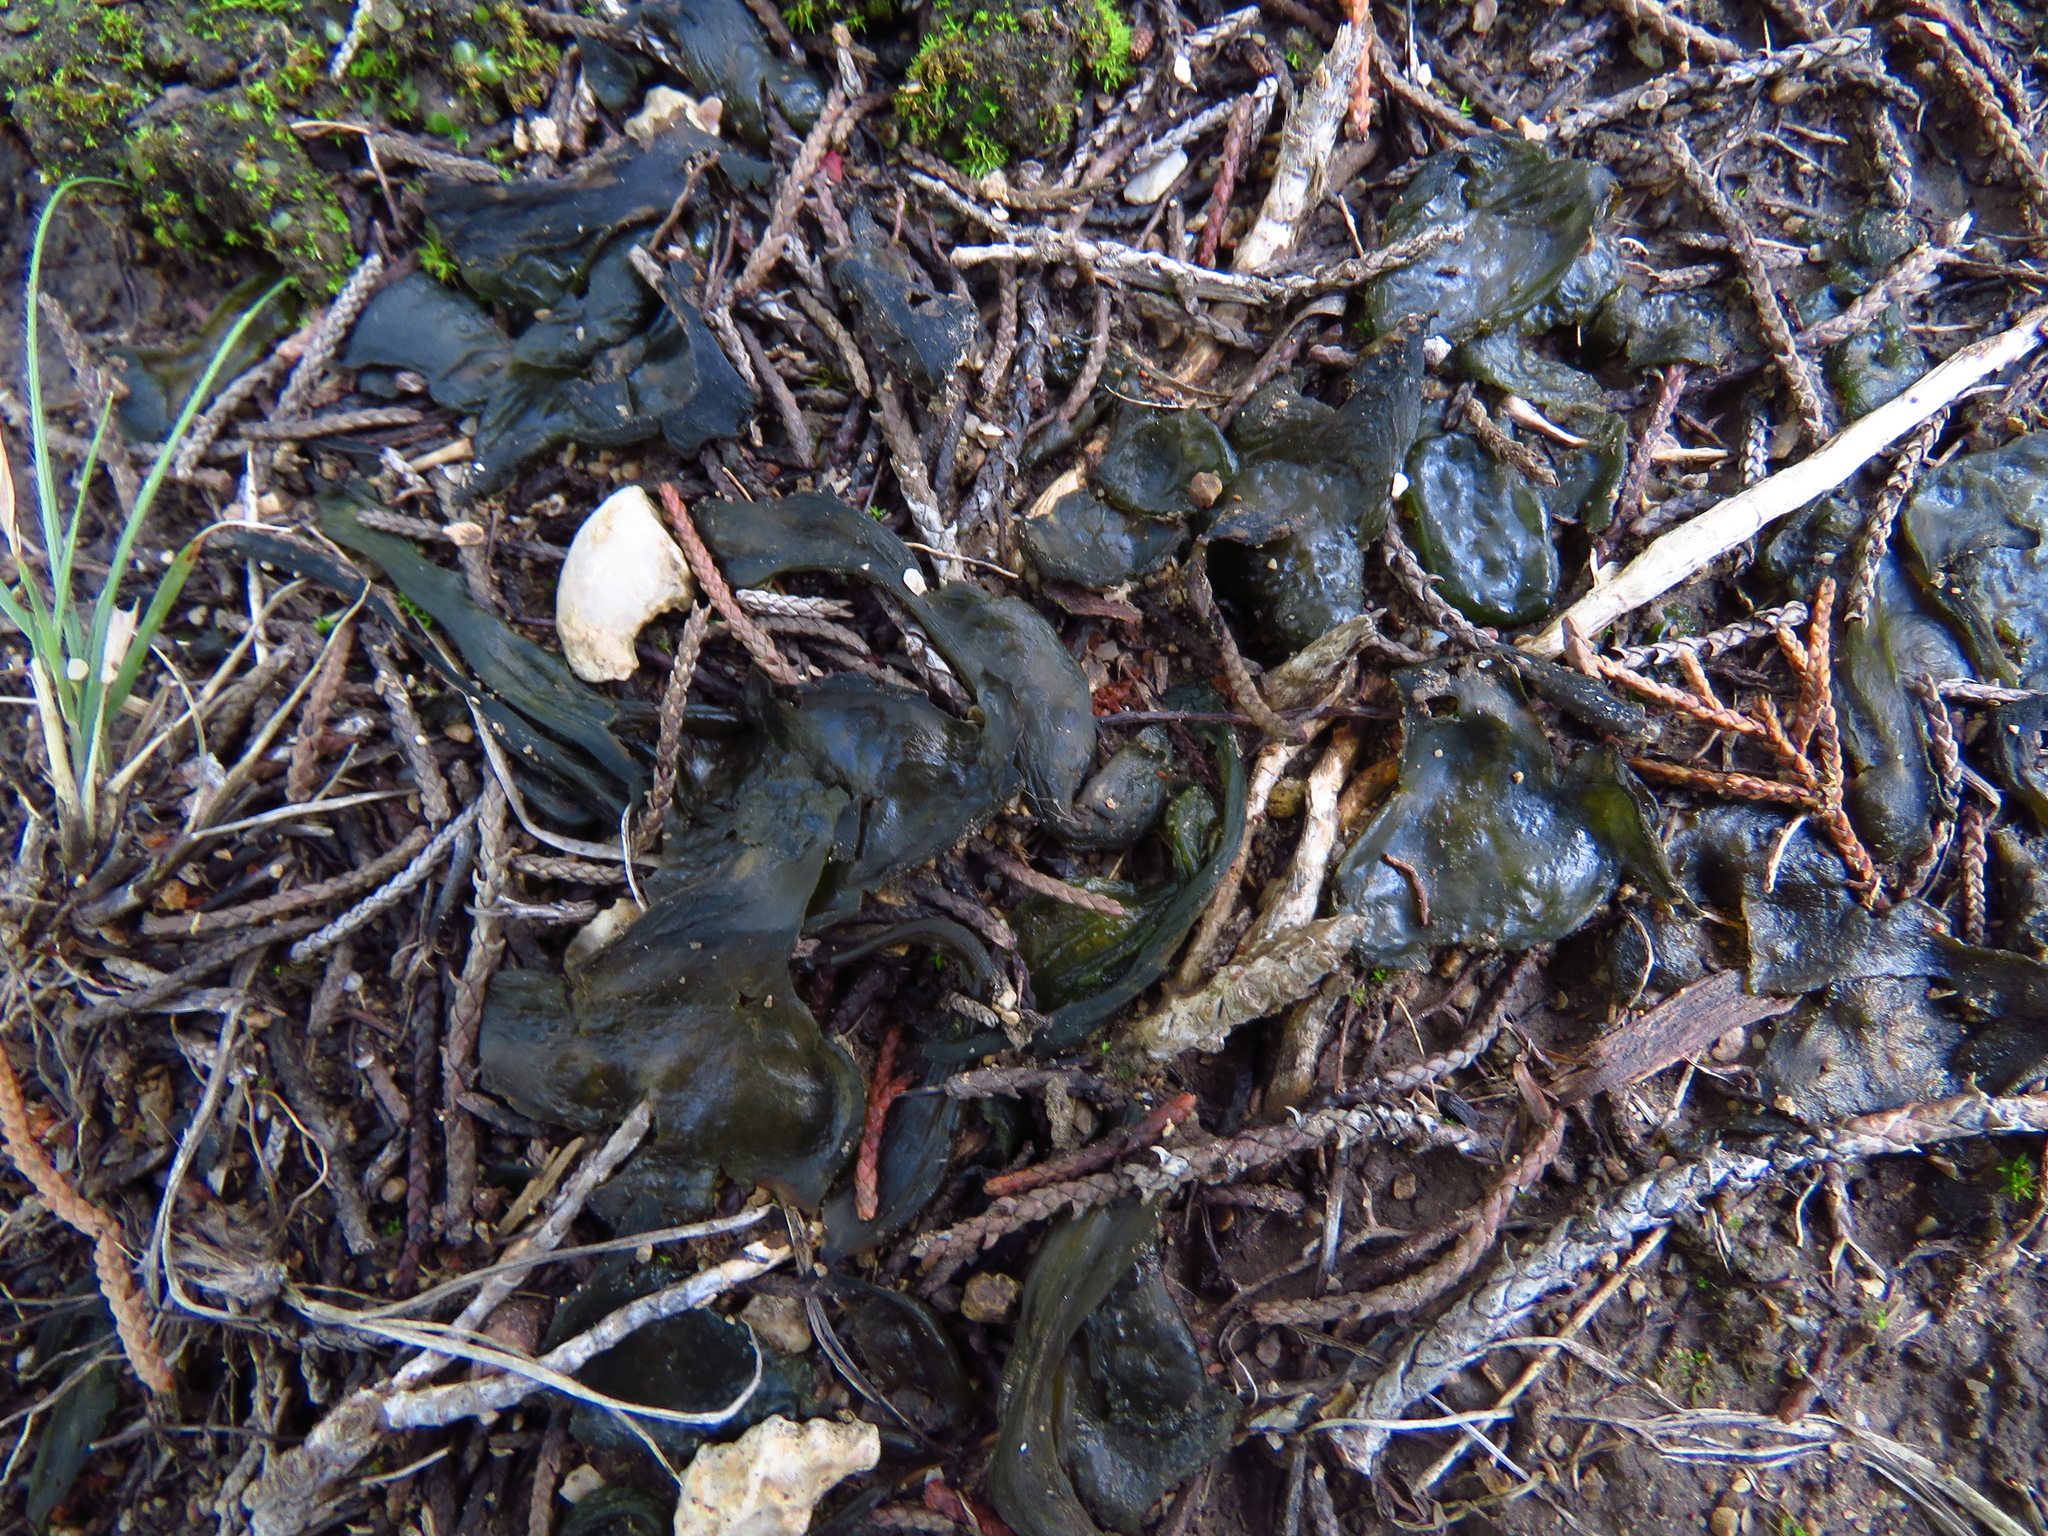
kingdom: Bacteria
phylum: Cyanobacteria
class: Cyanobacteriia
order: Cyanobacteriales
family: Nostocaceae
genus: Nostoc
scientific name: Nostoc commune
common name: Star jelly
